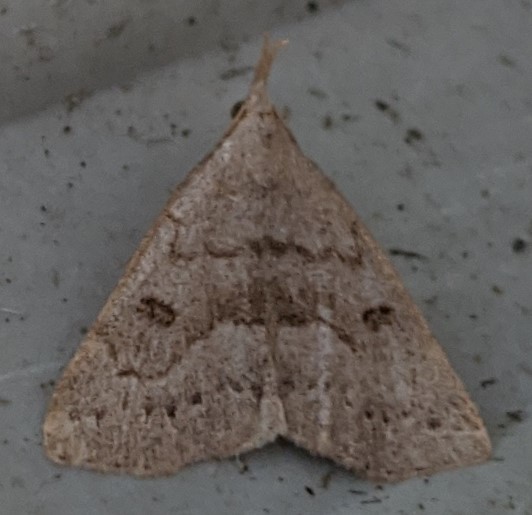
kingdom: Animalia
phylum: Arthropoda
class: Insecta
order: Lepidoptera
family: Erebidae
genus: Macrochilo
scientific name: Macrochilo morbidalis
